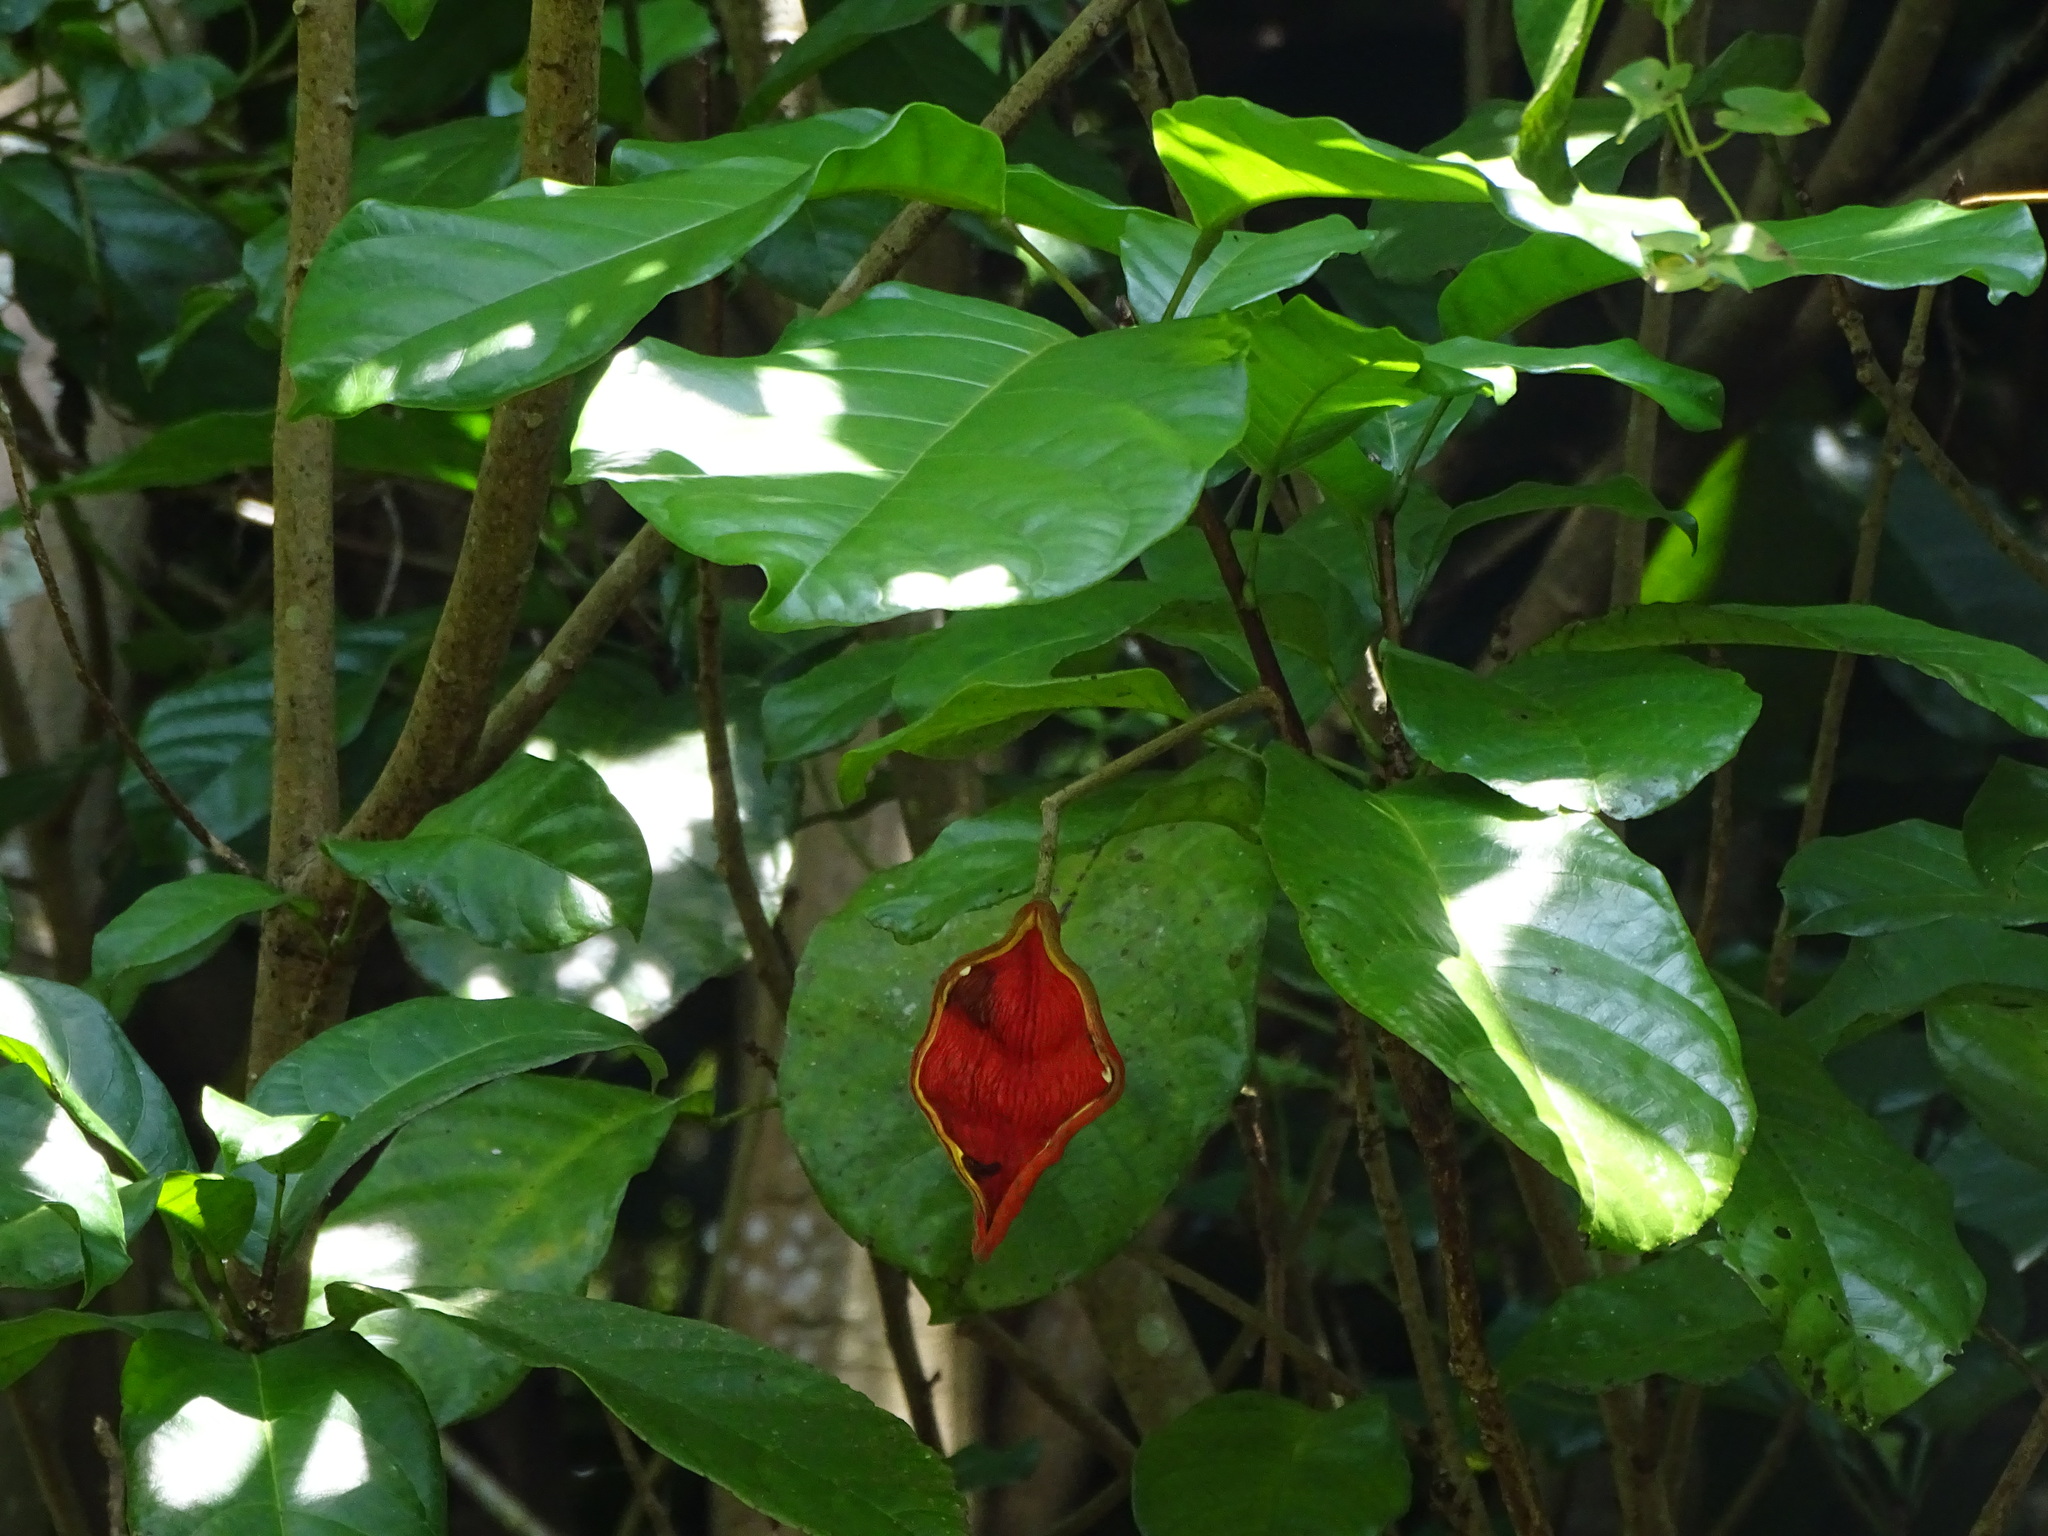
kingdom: Plantae
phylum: Tracheophyta
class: Magnoliopsida
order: Malvales
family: Malvaceae
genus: Sterculia
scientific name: Sterculia monosperma
